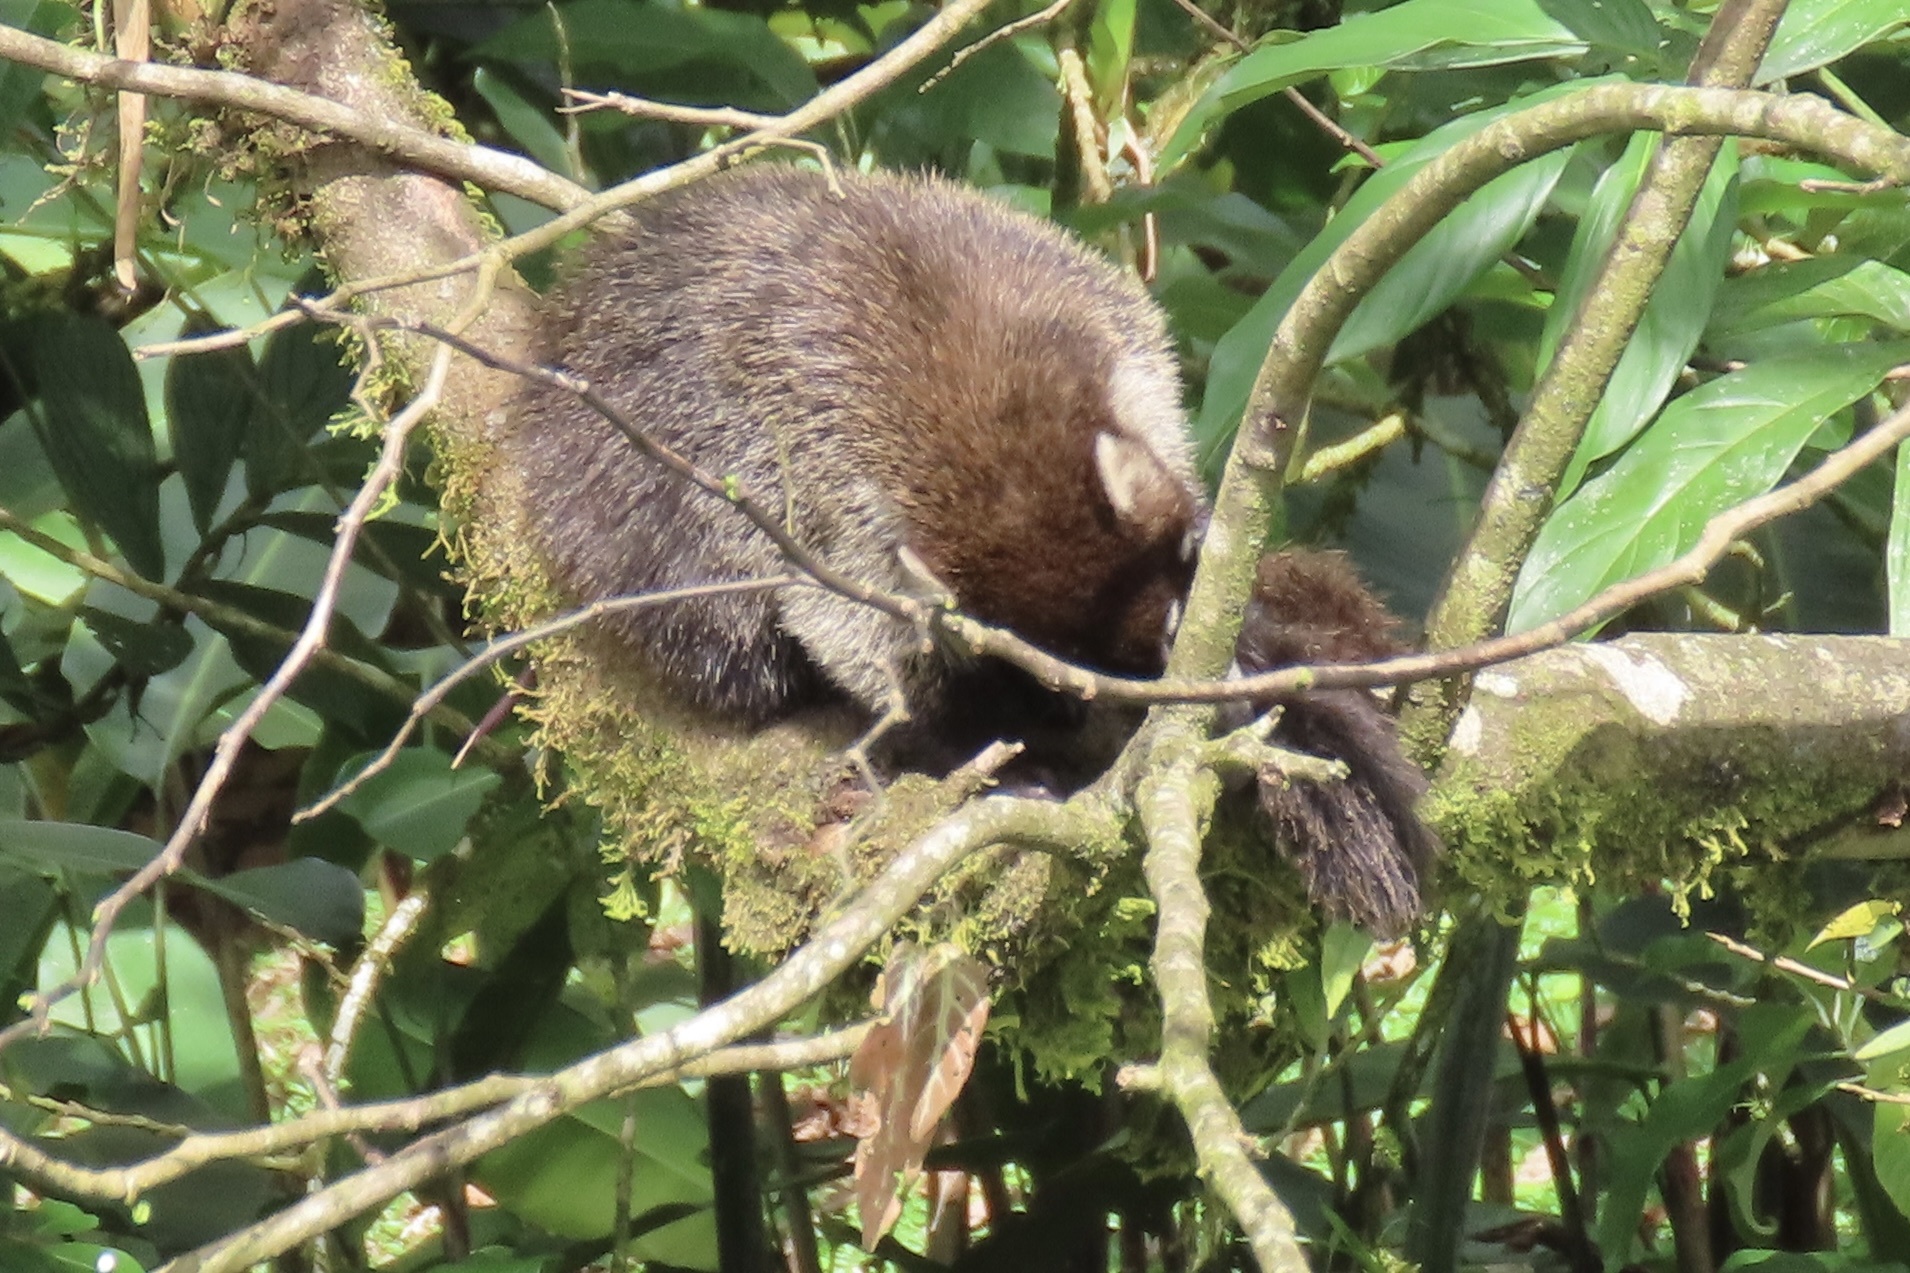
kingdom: Animalia
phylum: Chordata
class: Mammalia
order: Carnivora
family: Procyonidae
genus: Nasua
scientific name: Nasua narica
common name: White-nosed coati
